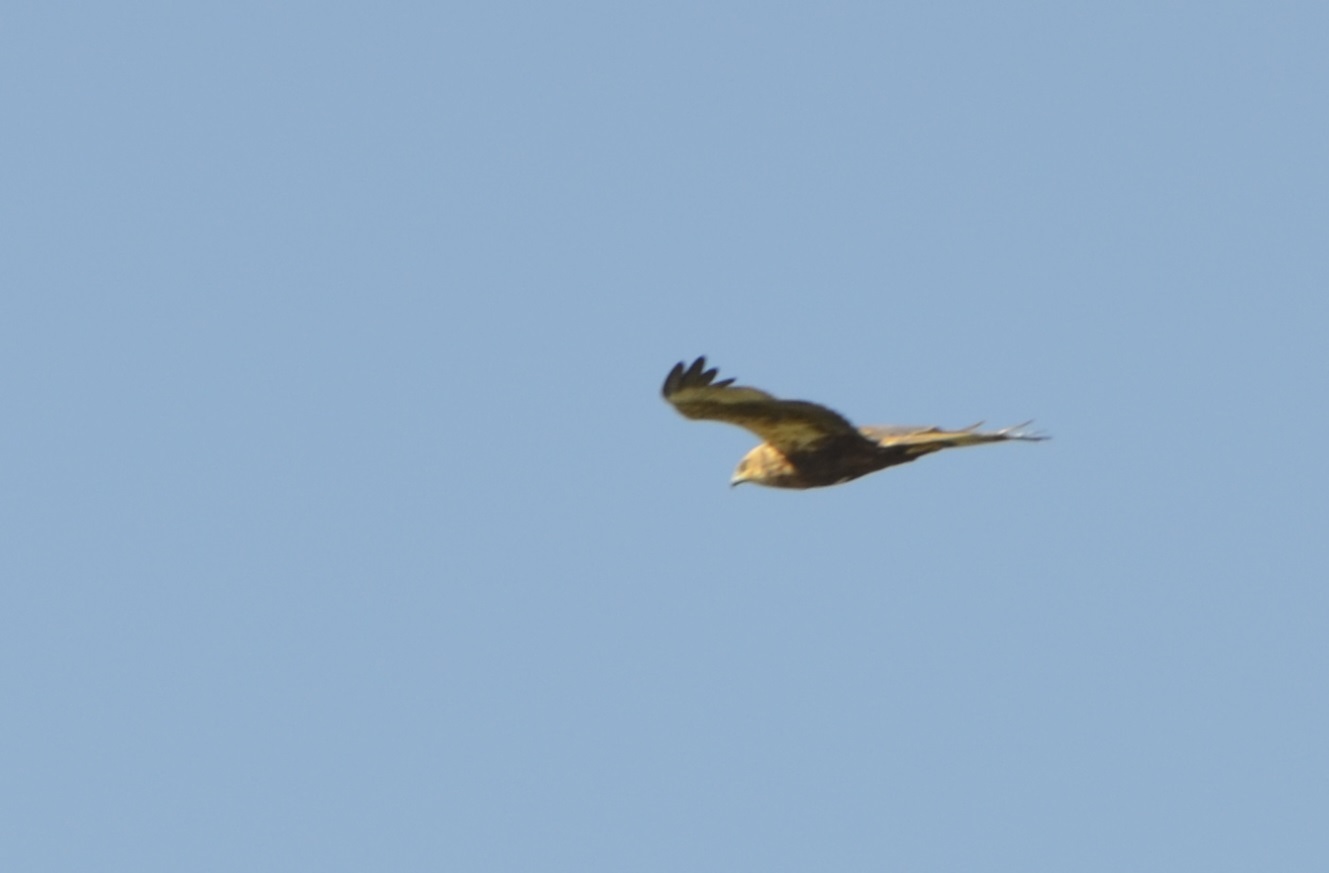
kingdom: Animalia
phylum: Chordata
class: Aves
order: Accipitriformes
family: Accipitridae
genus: Circus
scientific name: Circus aeruginosus
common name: Western marsh harrier
